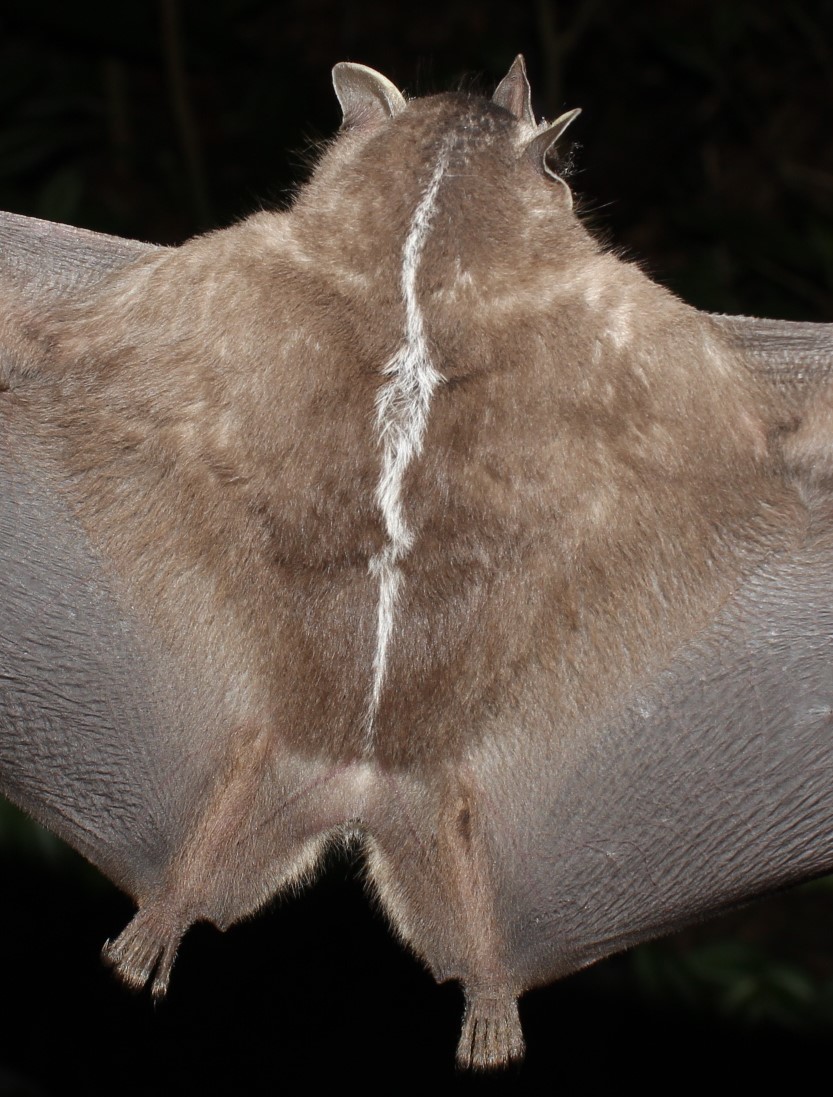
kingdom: Animalia
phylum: Chordata
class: Mammalia
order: Chiroptera
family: Phyllostomidae
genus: Platyrrhinus
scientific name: Platyrrhinus recifinus
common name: Recife broad-nosed bat
